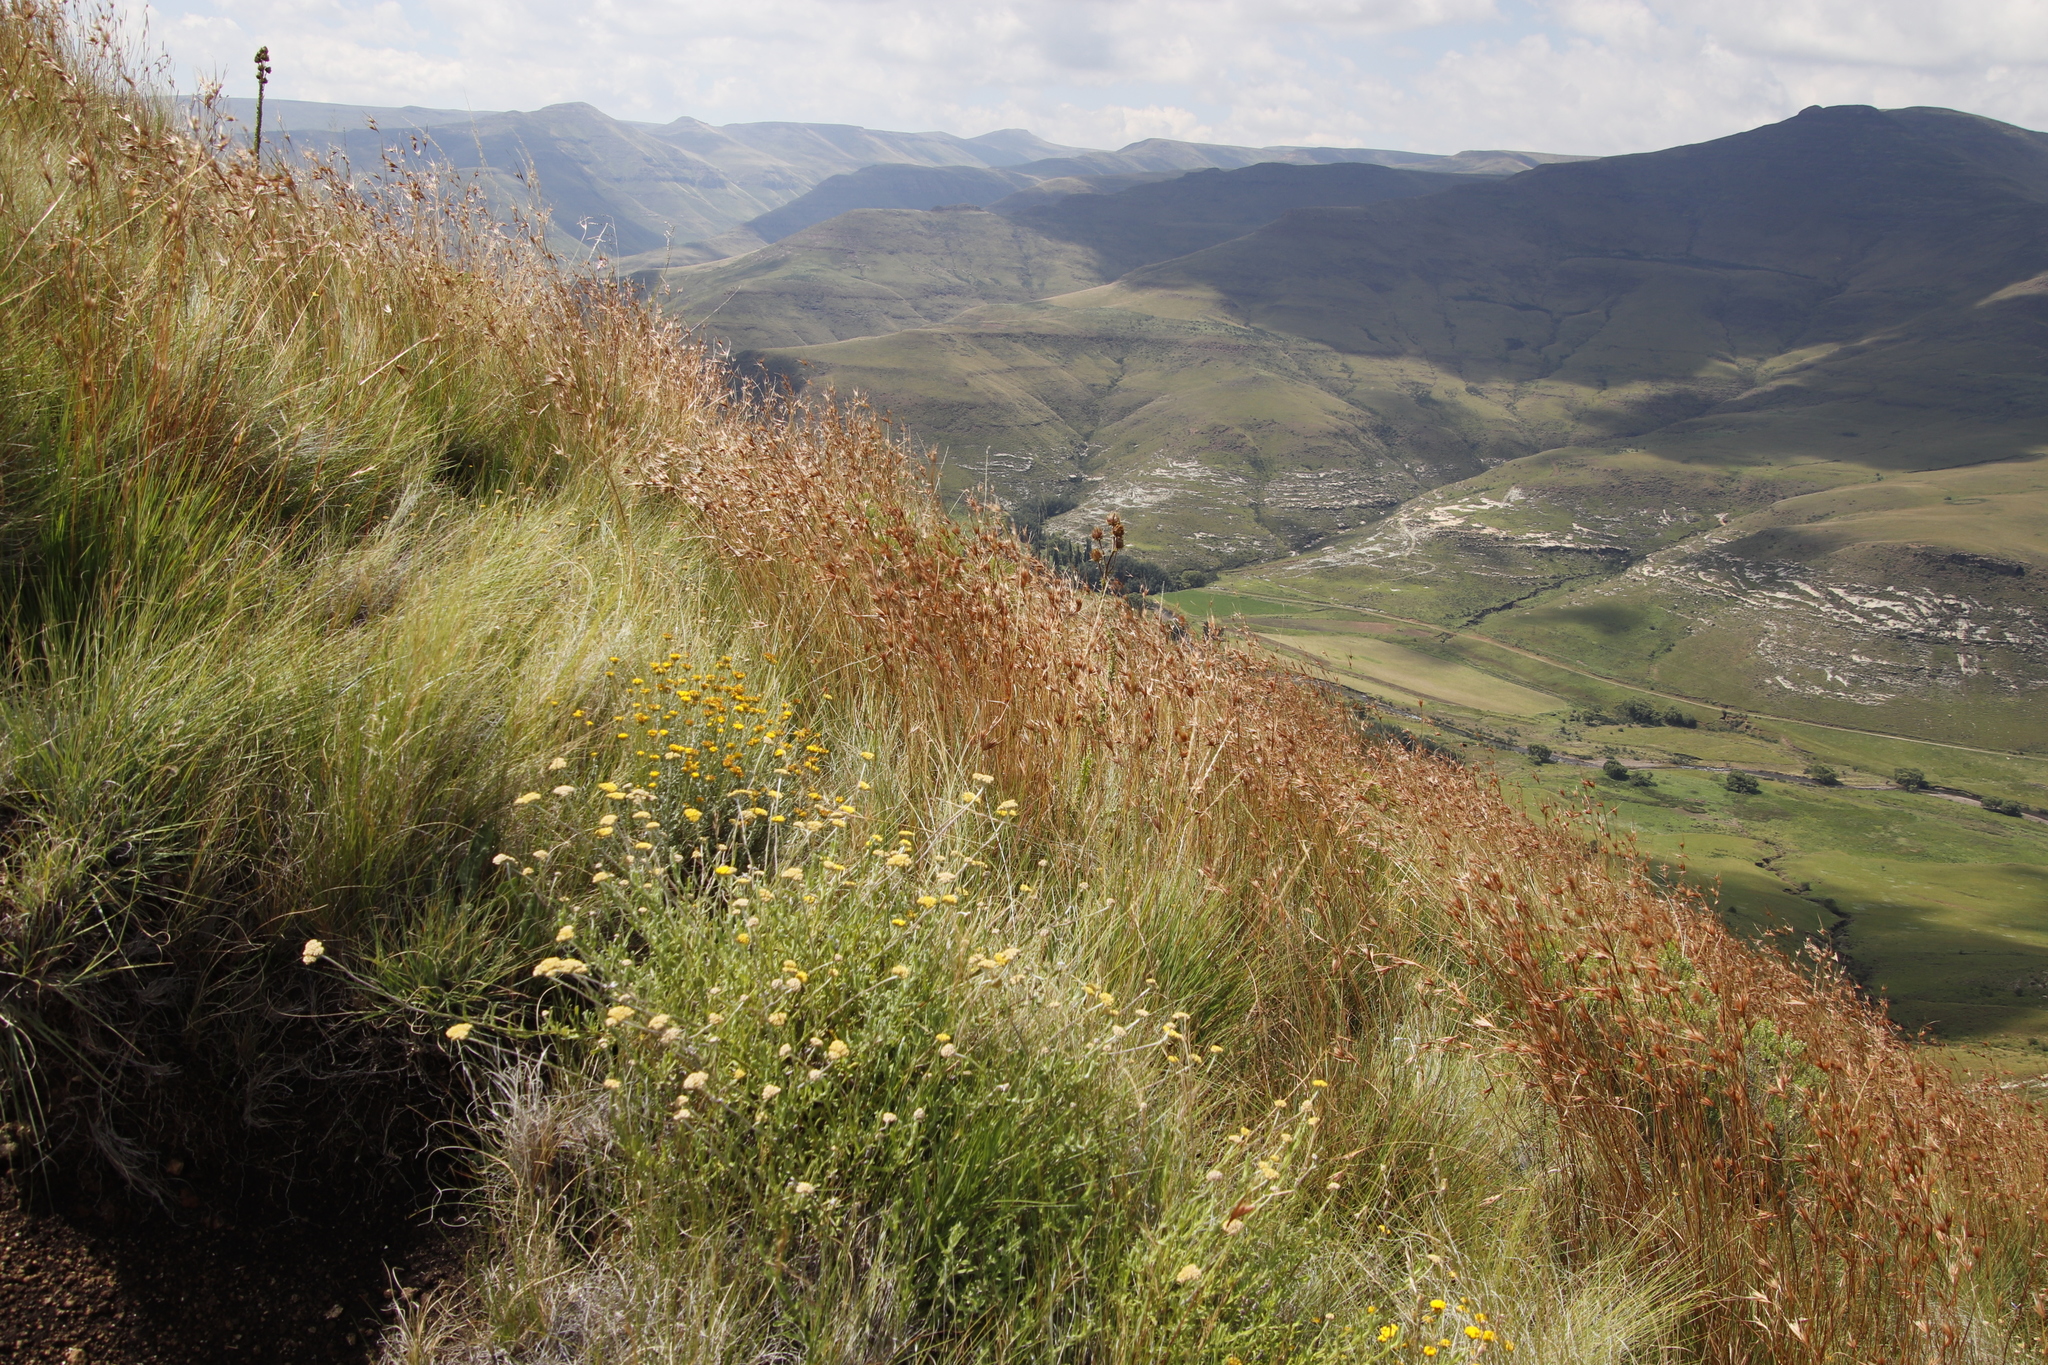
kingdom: Plantae
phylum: Tracheophyta
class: Liliopsida
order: Poales
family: Poaceae
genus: Themeda
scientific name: Themeda triandra
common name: Kangaroo grass
